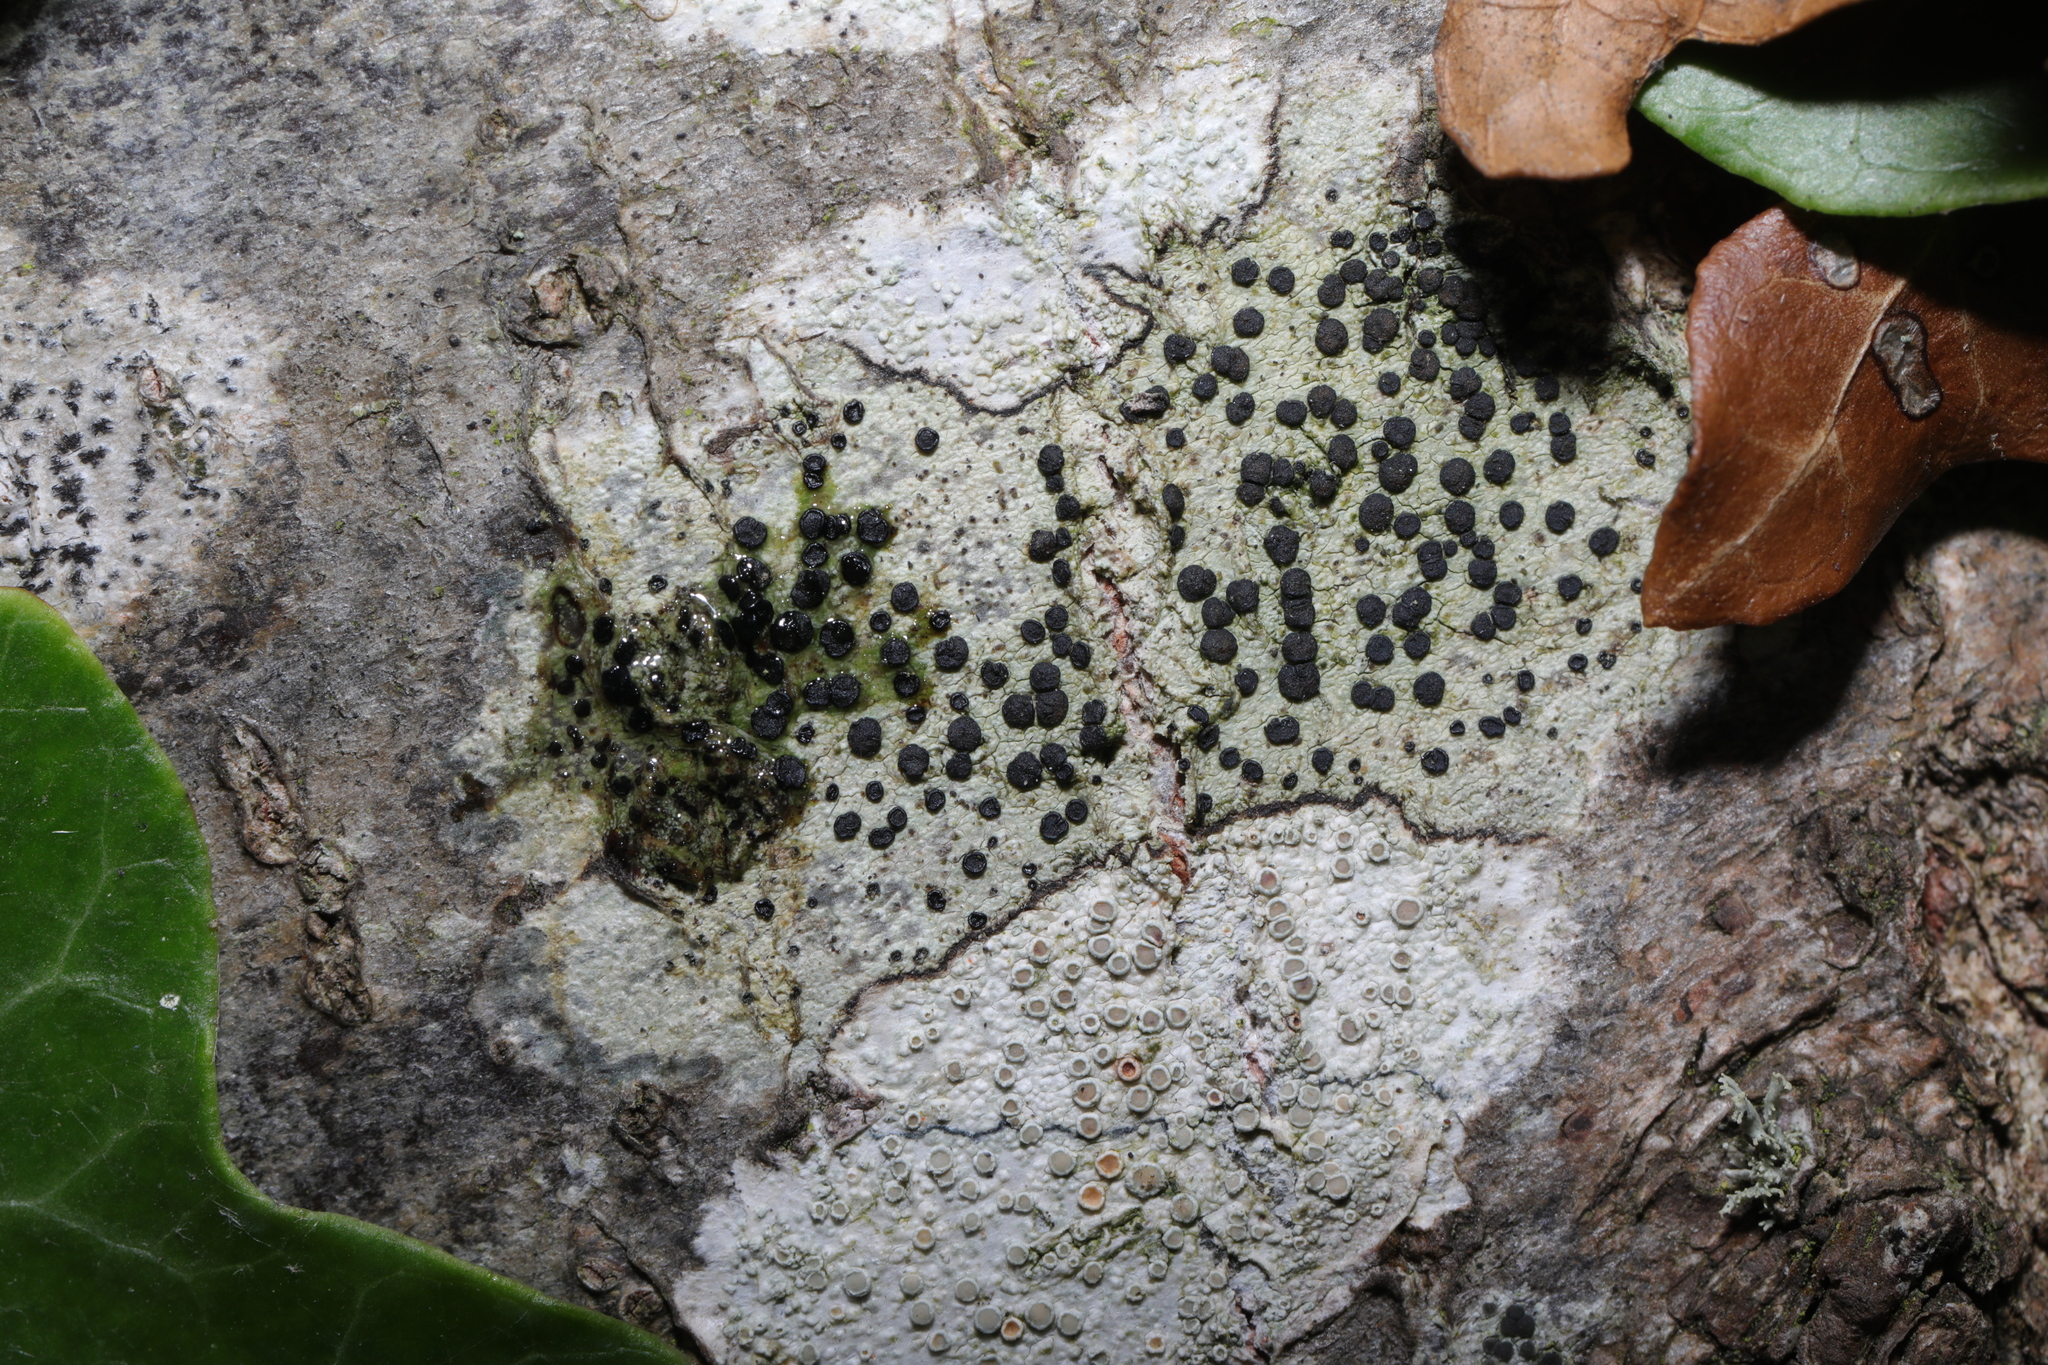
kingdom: Fungi
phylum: Ascomycota
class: Lecanoromycetes
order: Lecanorales
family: Lecanoraceae
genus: Lecidella
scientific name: Lecidella elaeochroma
